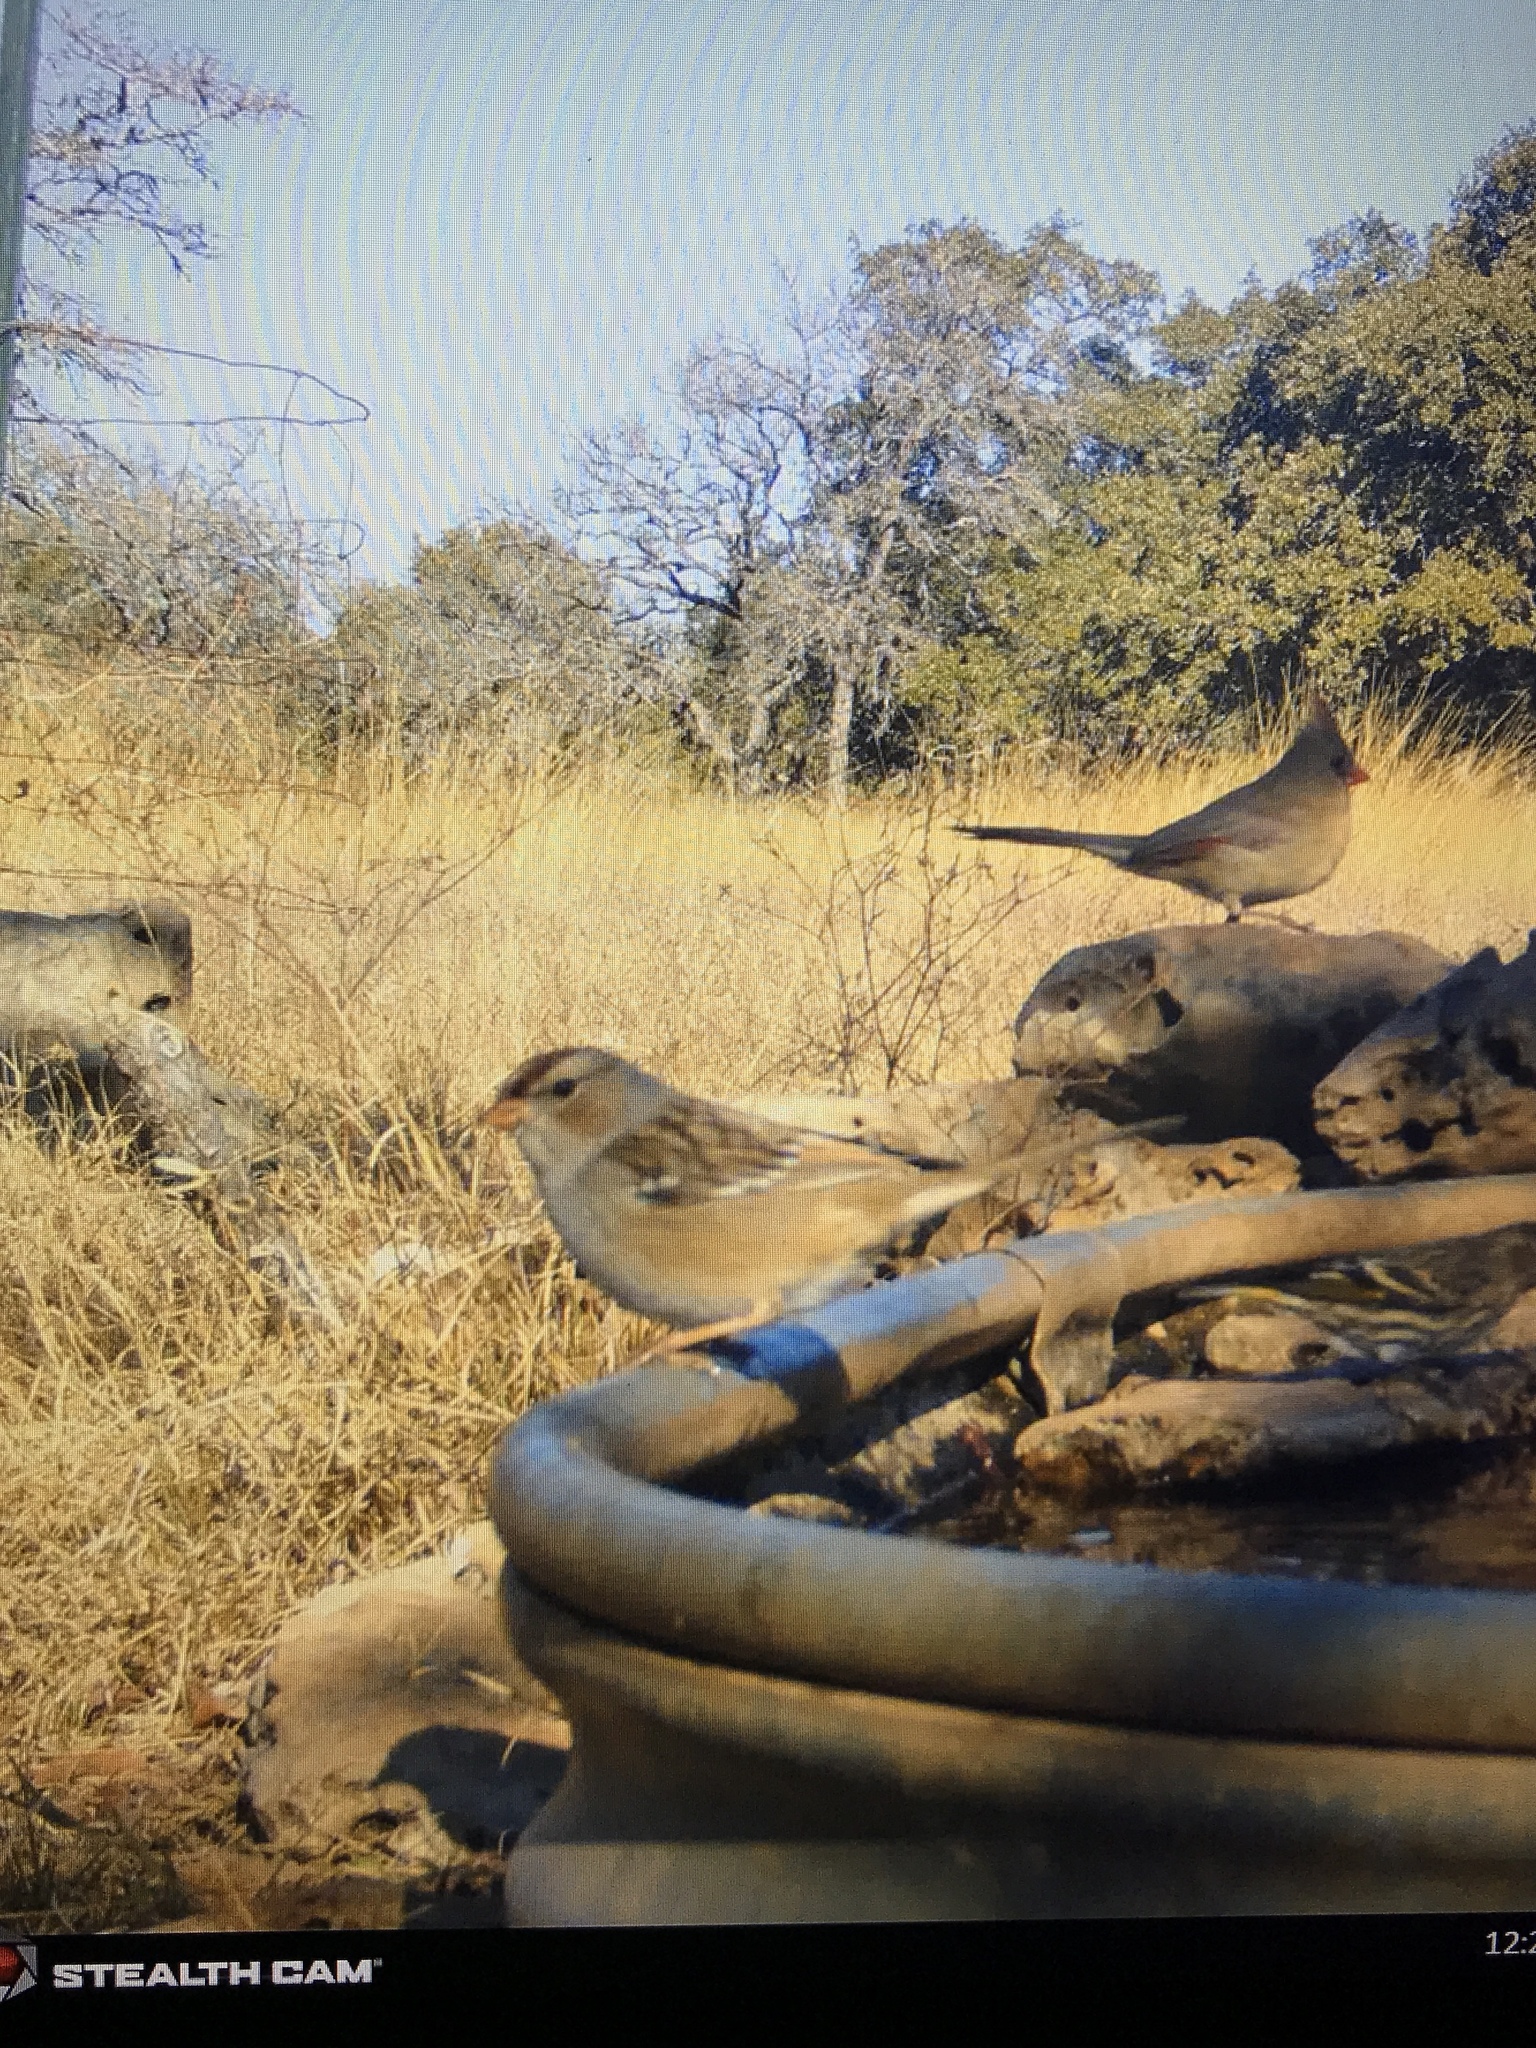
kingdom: Animalia
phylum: Chordata
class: Aves
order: Passeriformes
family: Passerellidae
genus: Zonotrichia
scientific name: Zonotrichia leucophrys
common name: White-crowned sparrow
